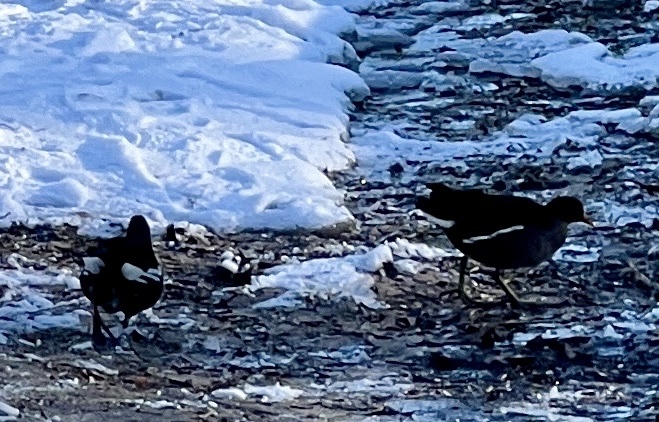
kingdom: Animalia
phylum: Chordata
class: Aves
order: Gruiformes
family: Rallidae
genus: Gallinula
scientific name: Gallinula chloropus
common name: Common moorhen
